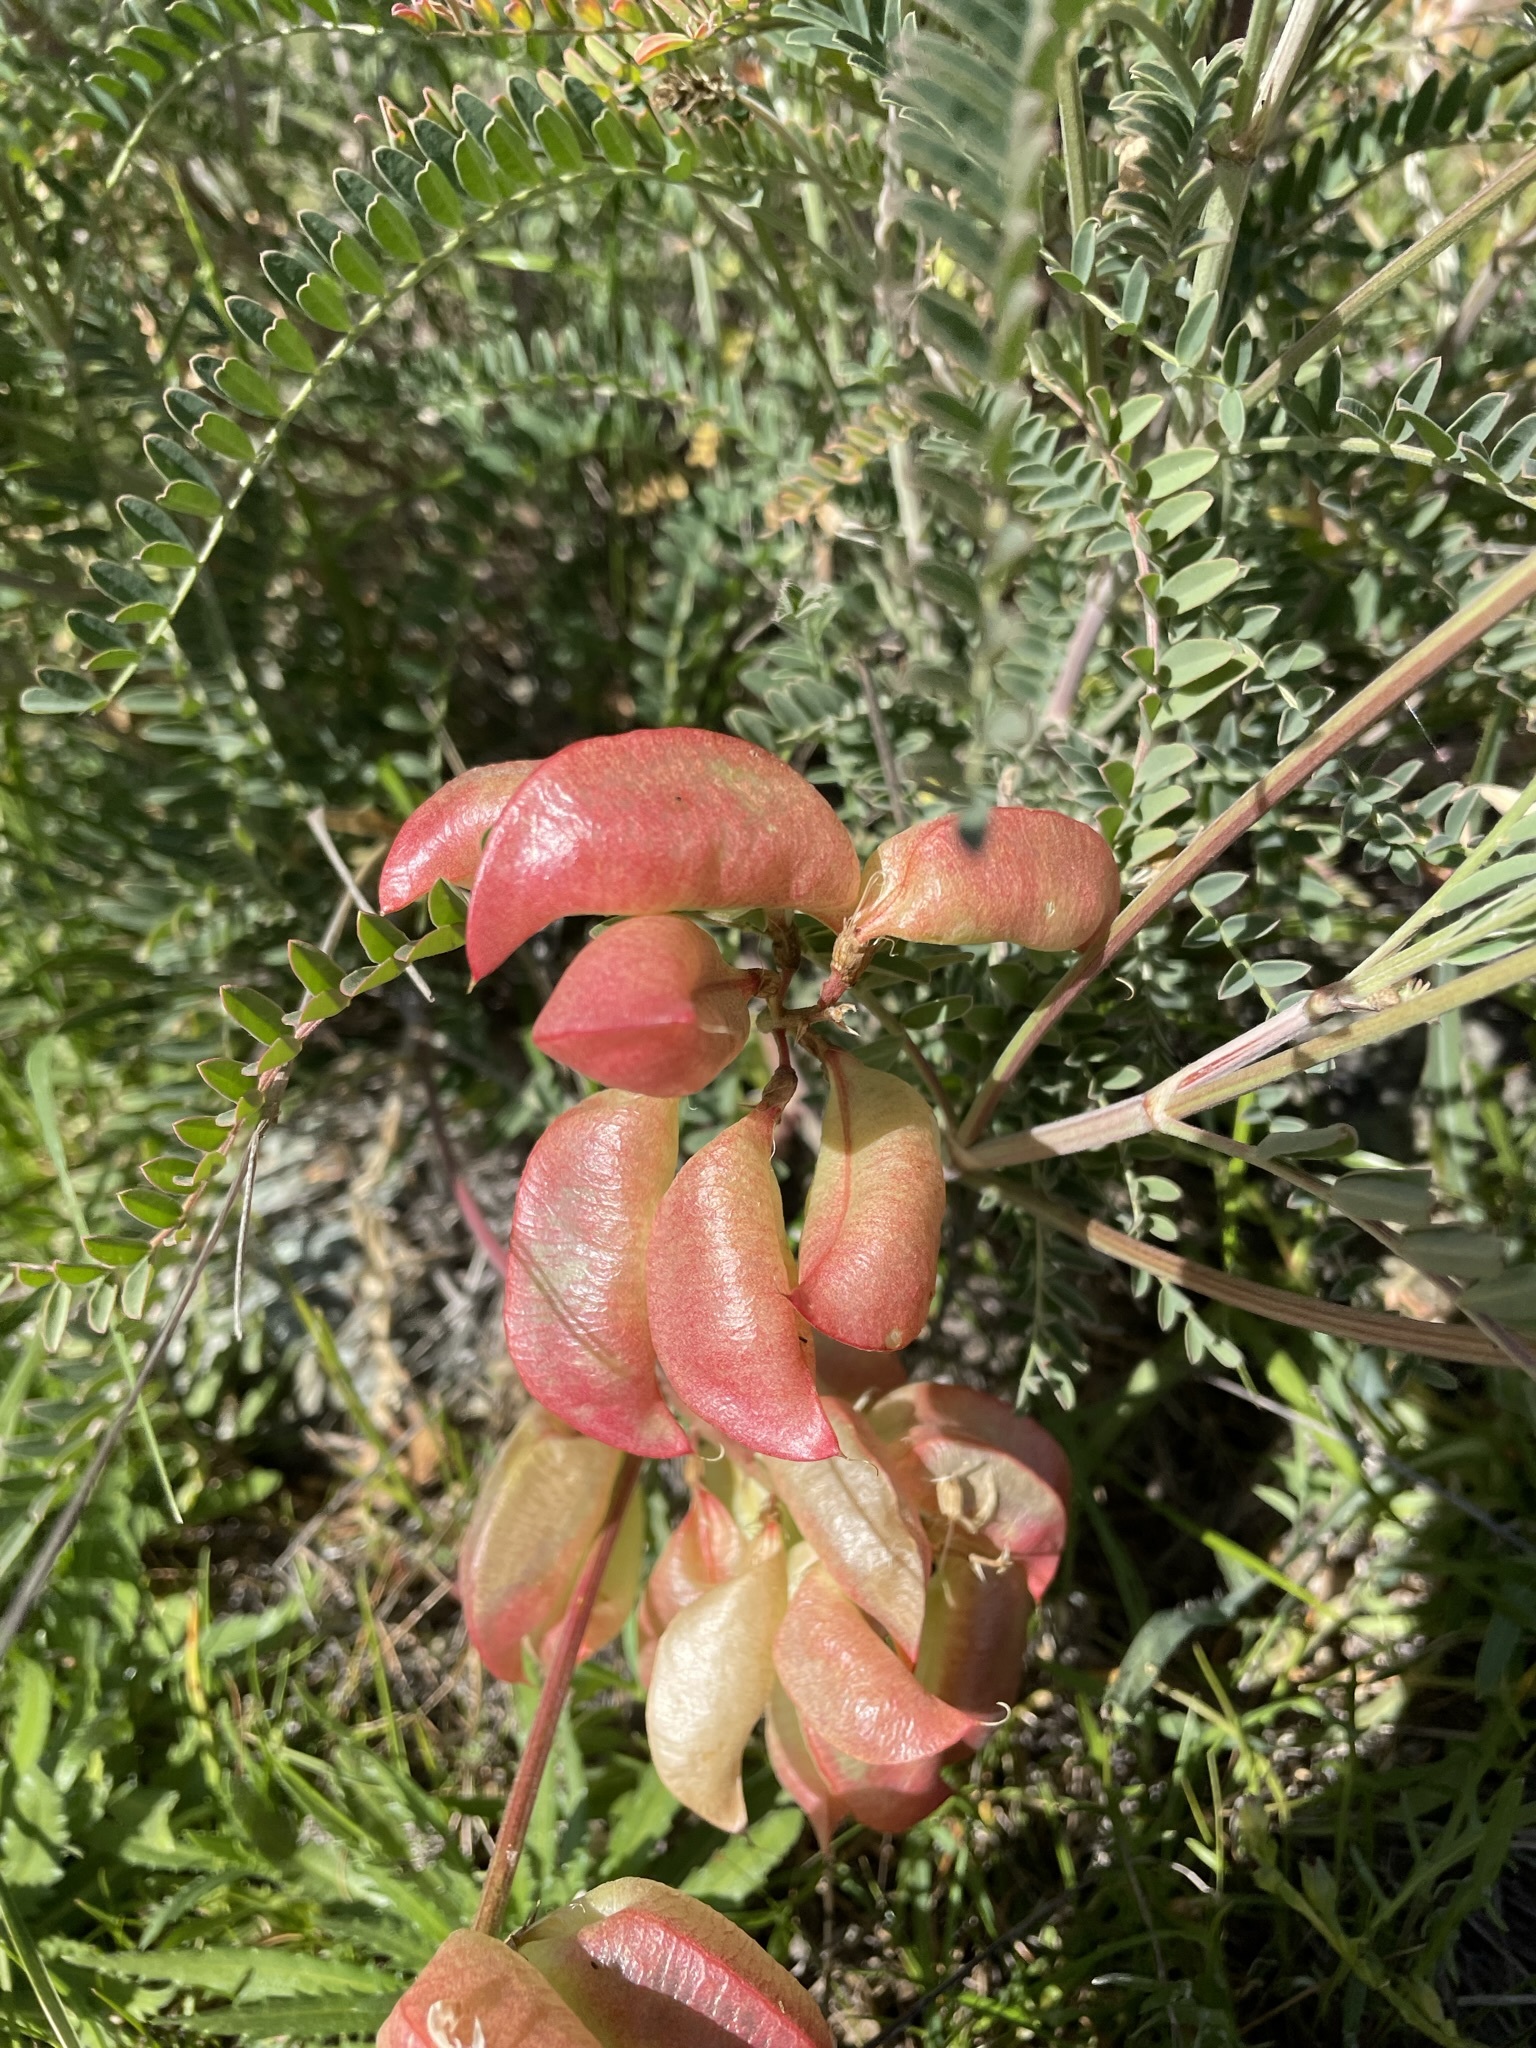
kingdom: Plantae
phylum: Tracheophyta
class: Magnoliopsida
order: Fabales
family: Fabaceae
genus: Astragalus
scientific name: Astragalus curtipes
